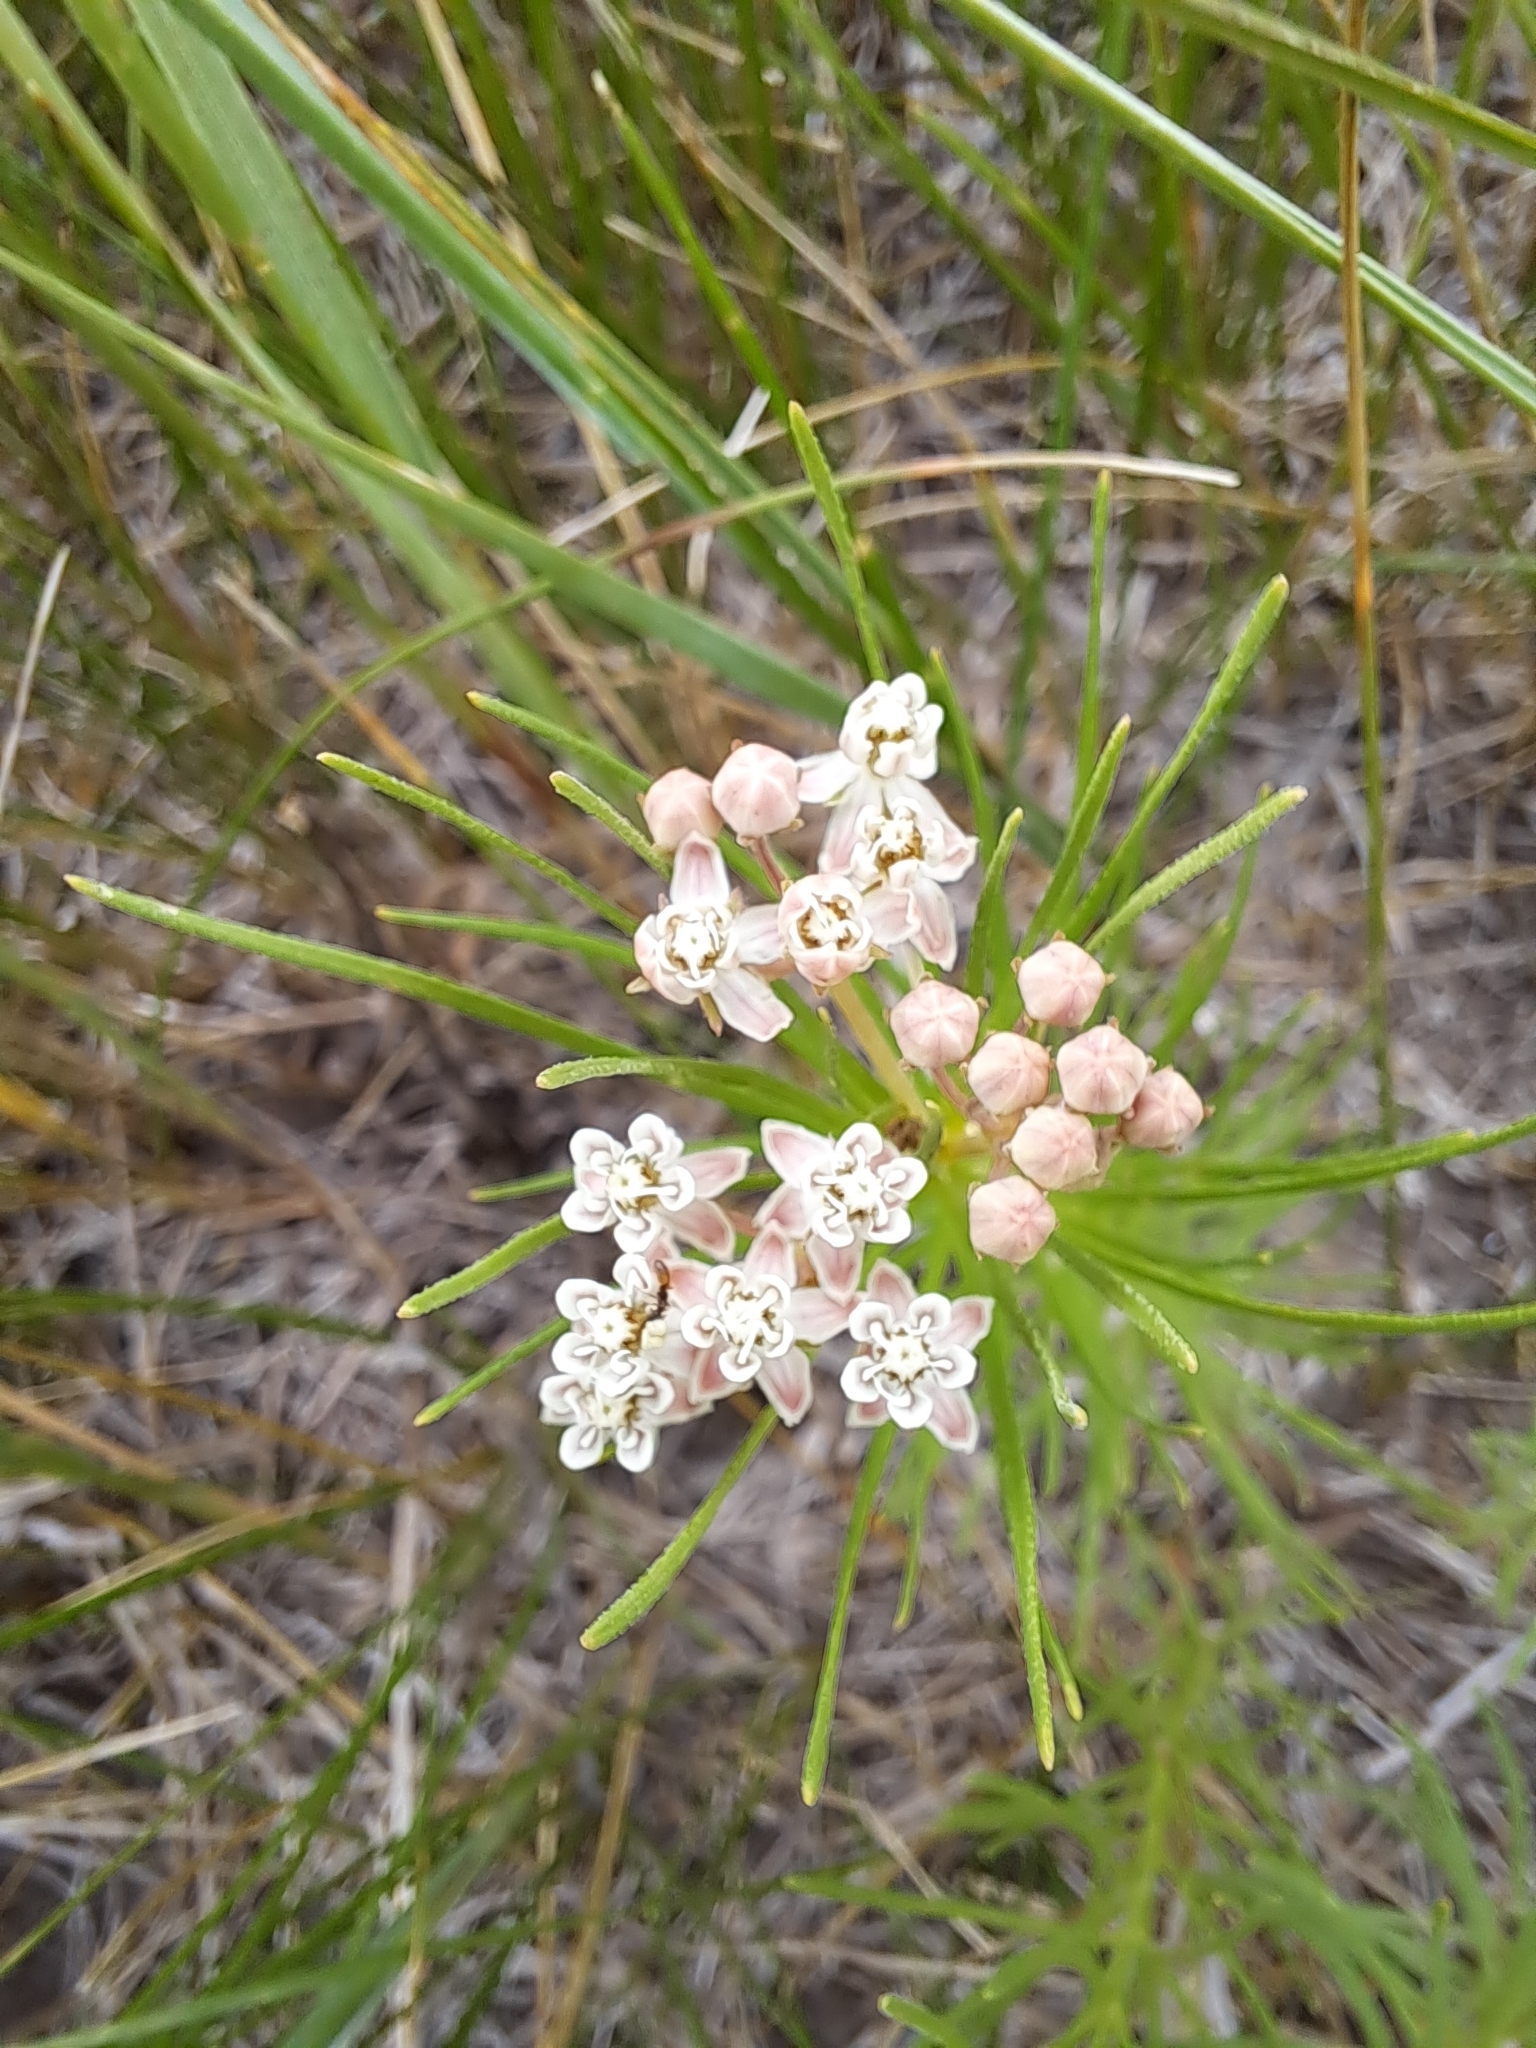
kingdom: Plantae
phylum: Tracheophyta
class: Magnoliopsida
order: Gentianales
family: Apocynaceae
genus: Asclepias
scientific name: Asclepias pumila
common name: Dwarf milkweed
